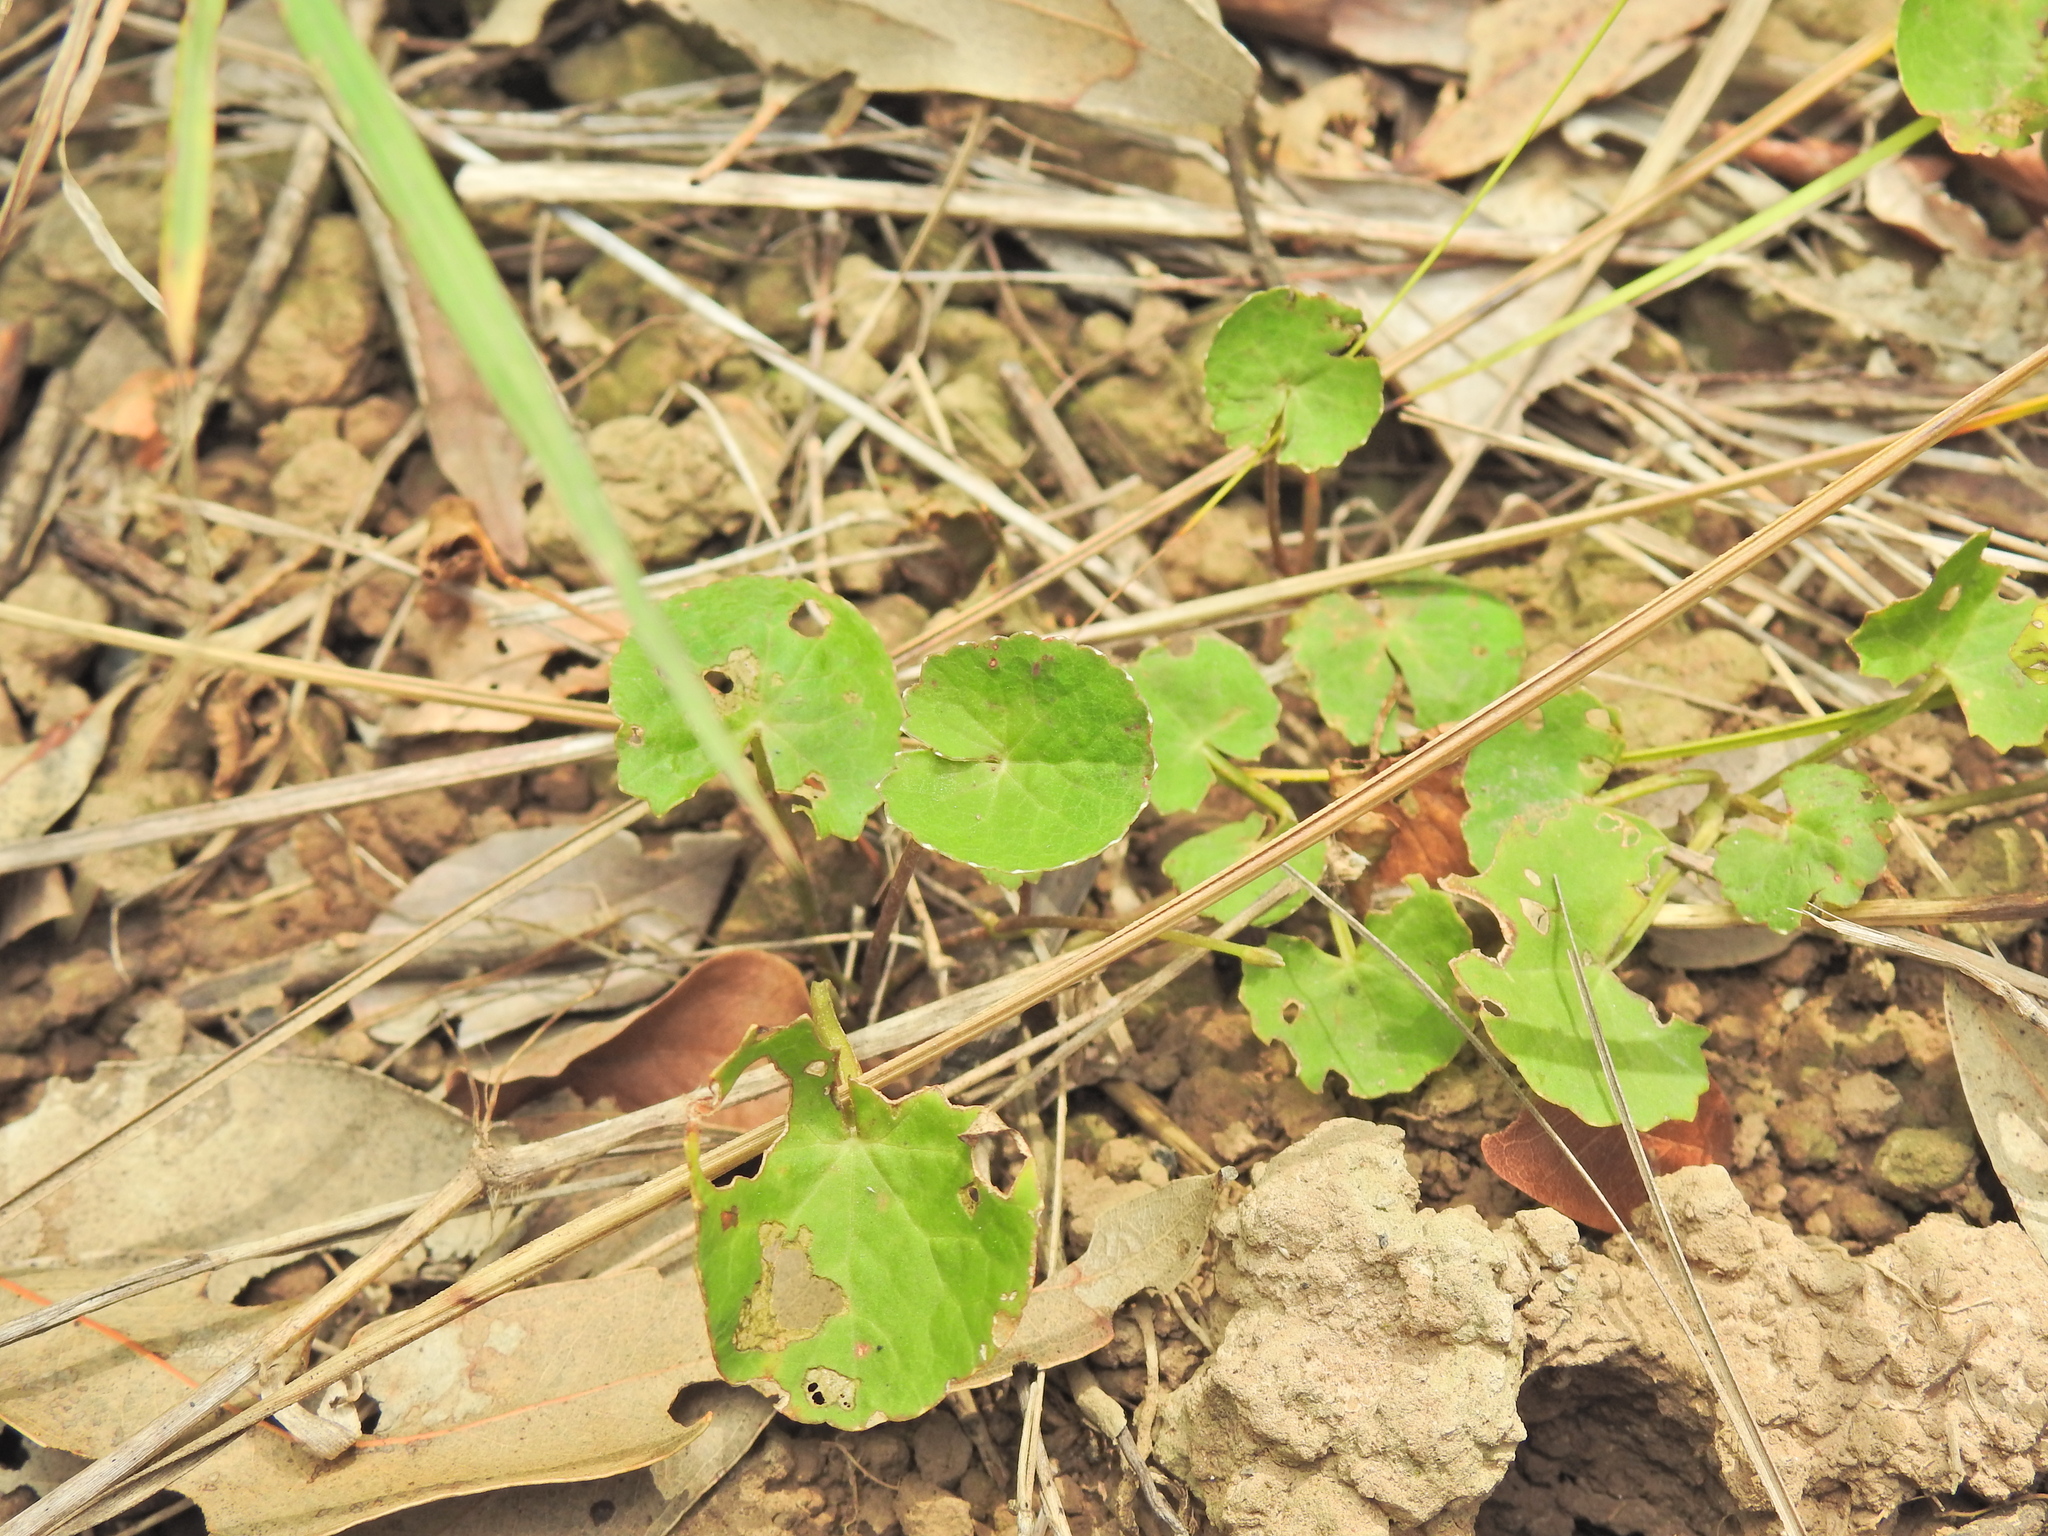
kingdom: Plantae
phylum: Tracheophyta
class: Magnoliopsida
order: Apiales
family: Apiaceae
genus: Centella
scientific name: Centella asiatica
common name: Spadeleaf
